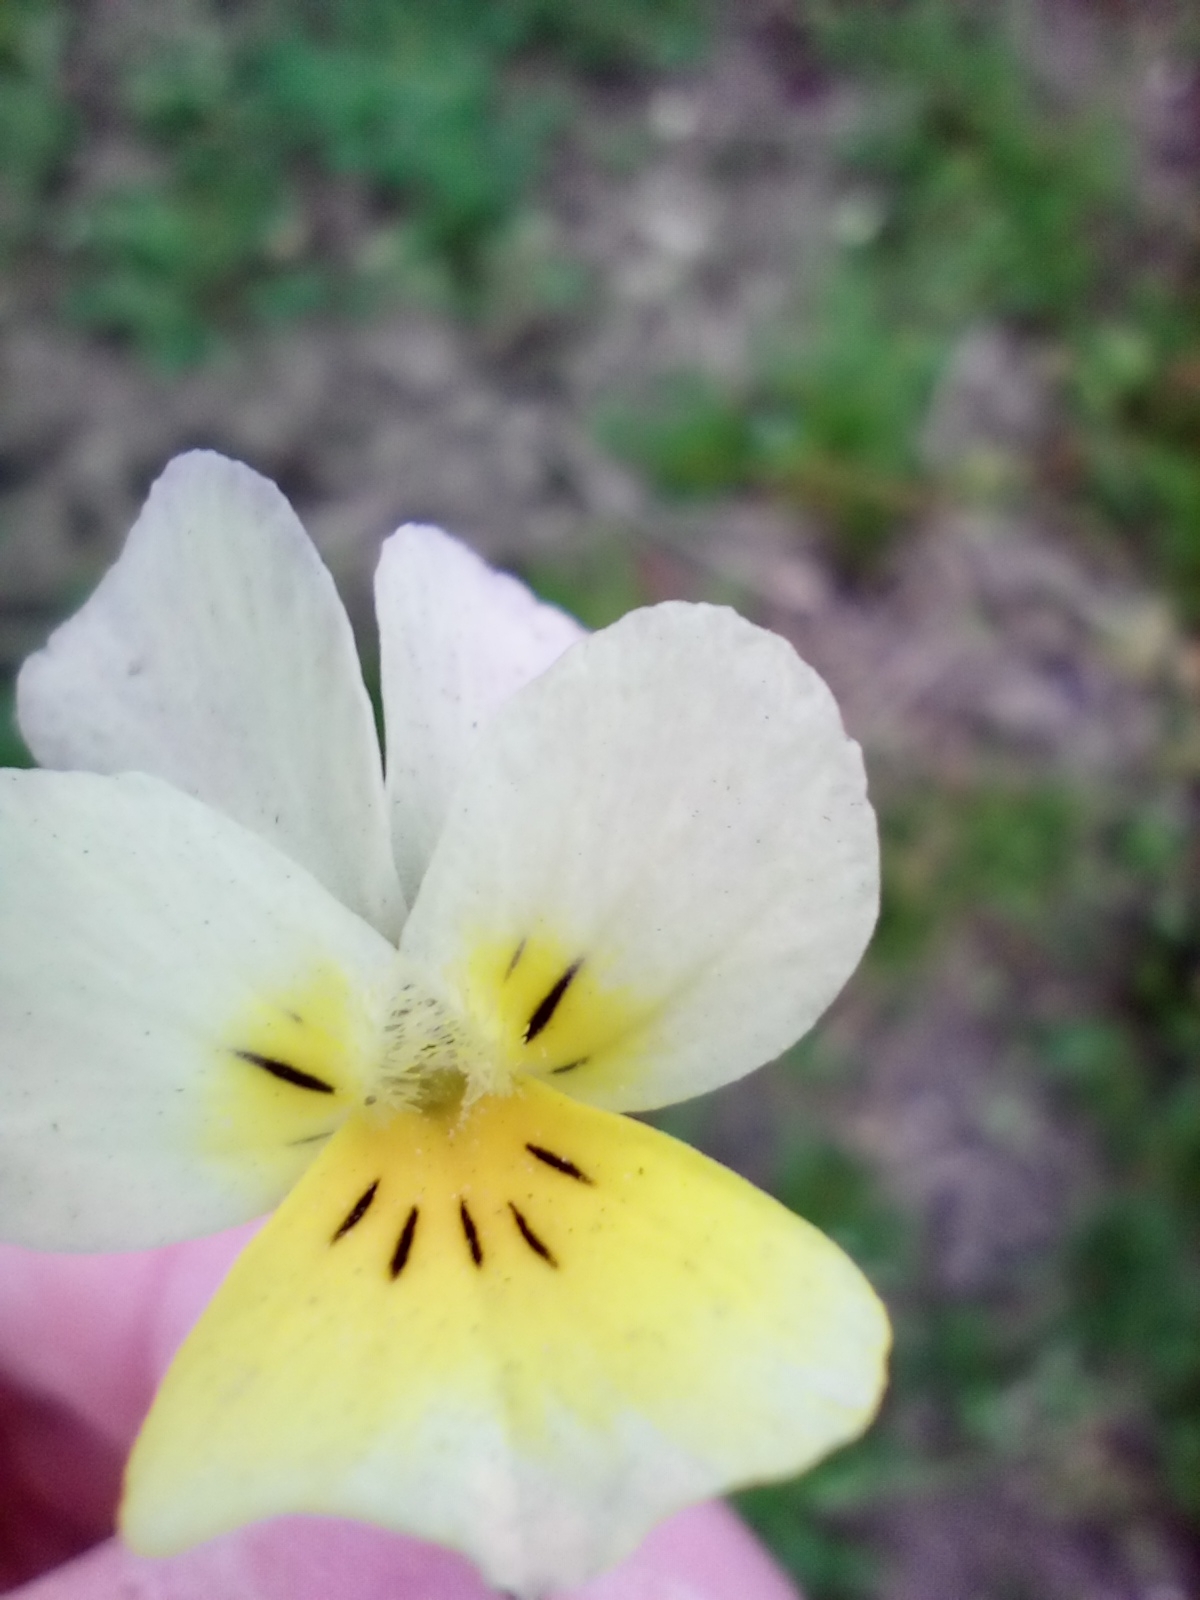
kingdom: Plantae
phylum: Tracheophyta
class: Magnoliopsida
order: Malpighiales
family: Violaceae
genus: Viola
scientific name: Viola arvensis
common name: Field pansy
